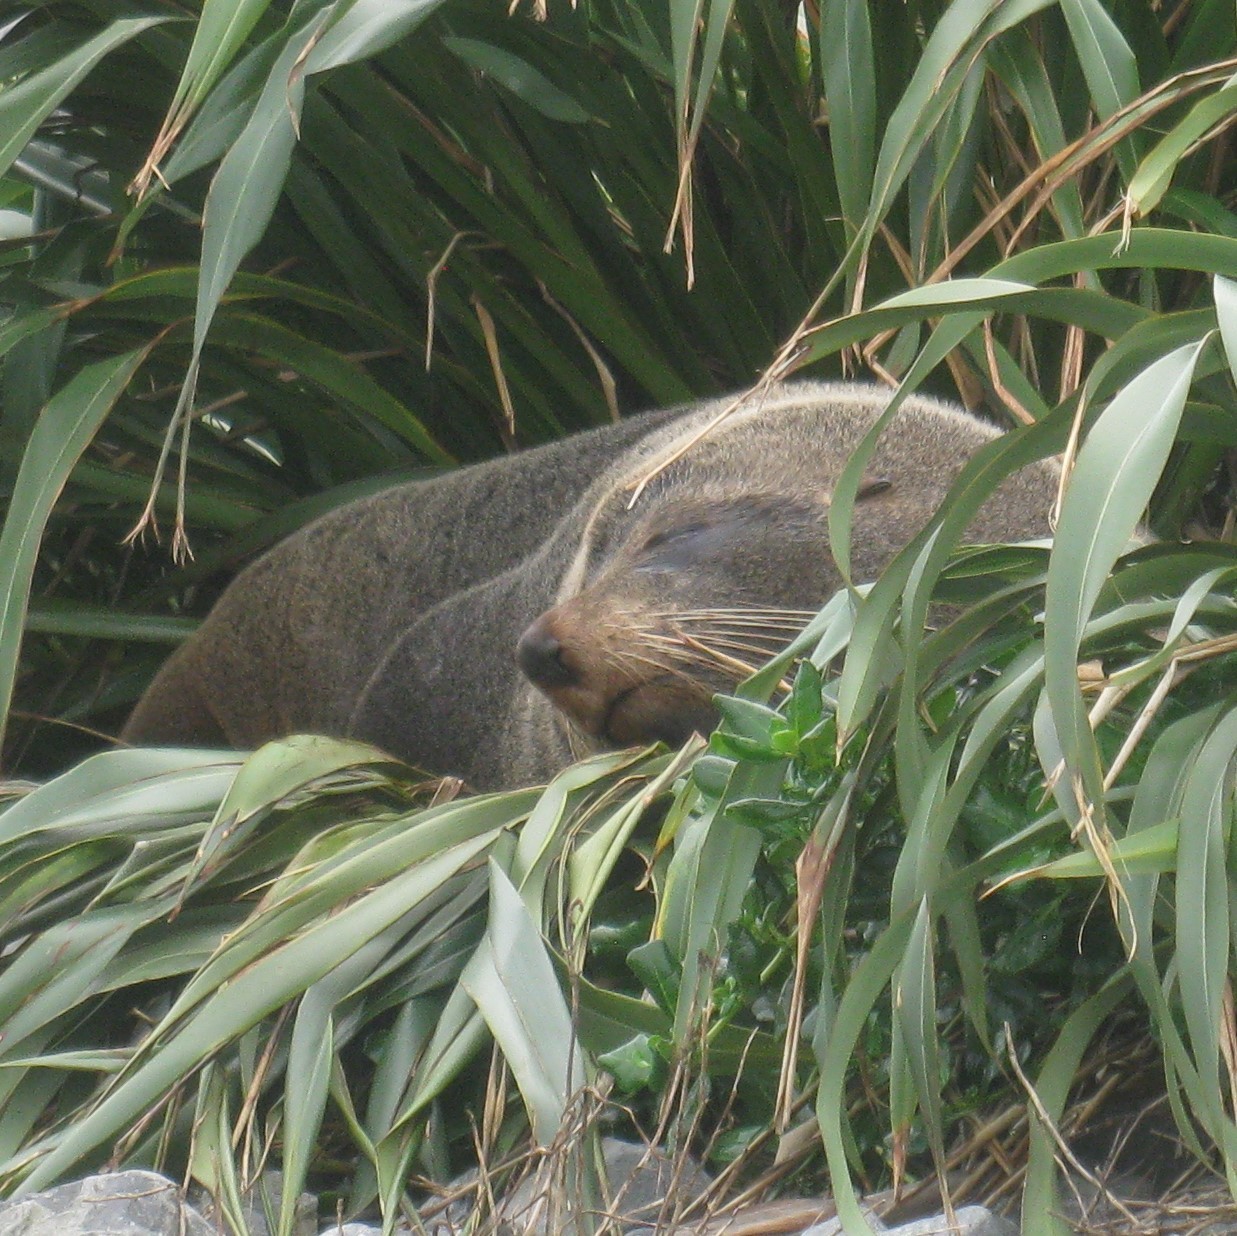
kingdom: Animalia
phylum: Chordata
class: Mammalia
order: Carnivora
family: Otariidae
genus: Arctocephalus
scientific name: Arctocephalus forsteri
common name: New zealand fur seal
